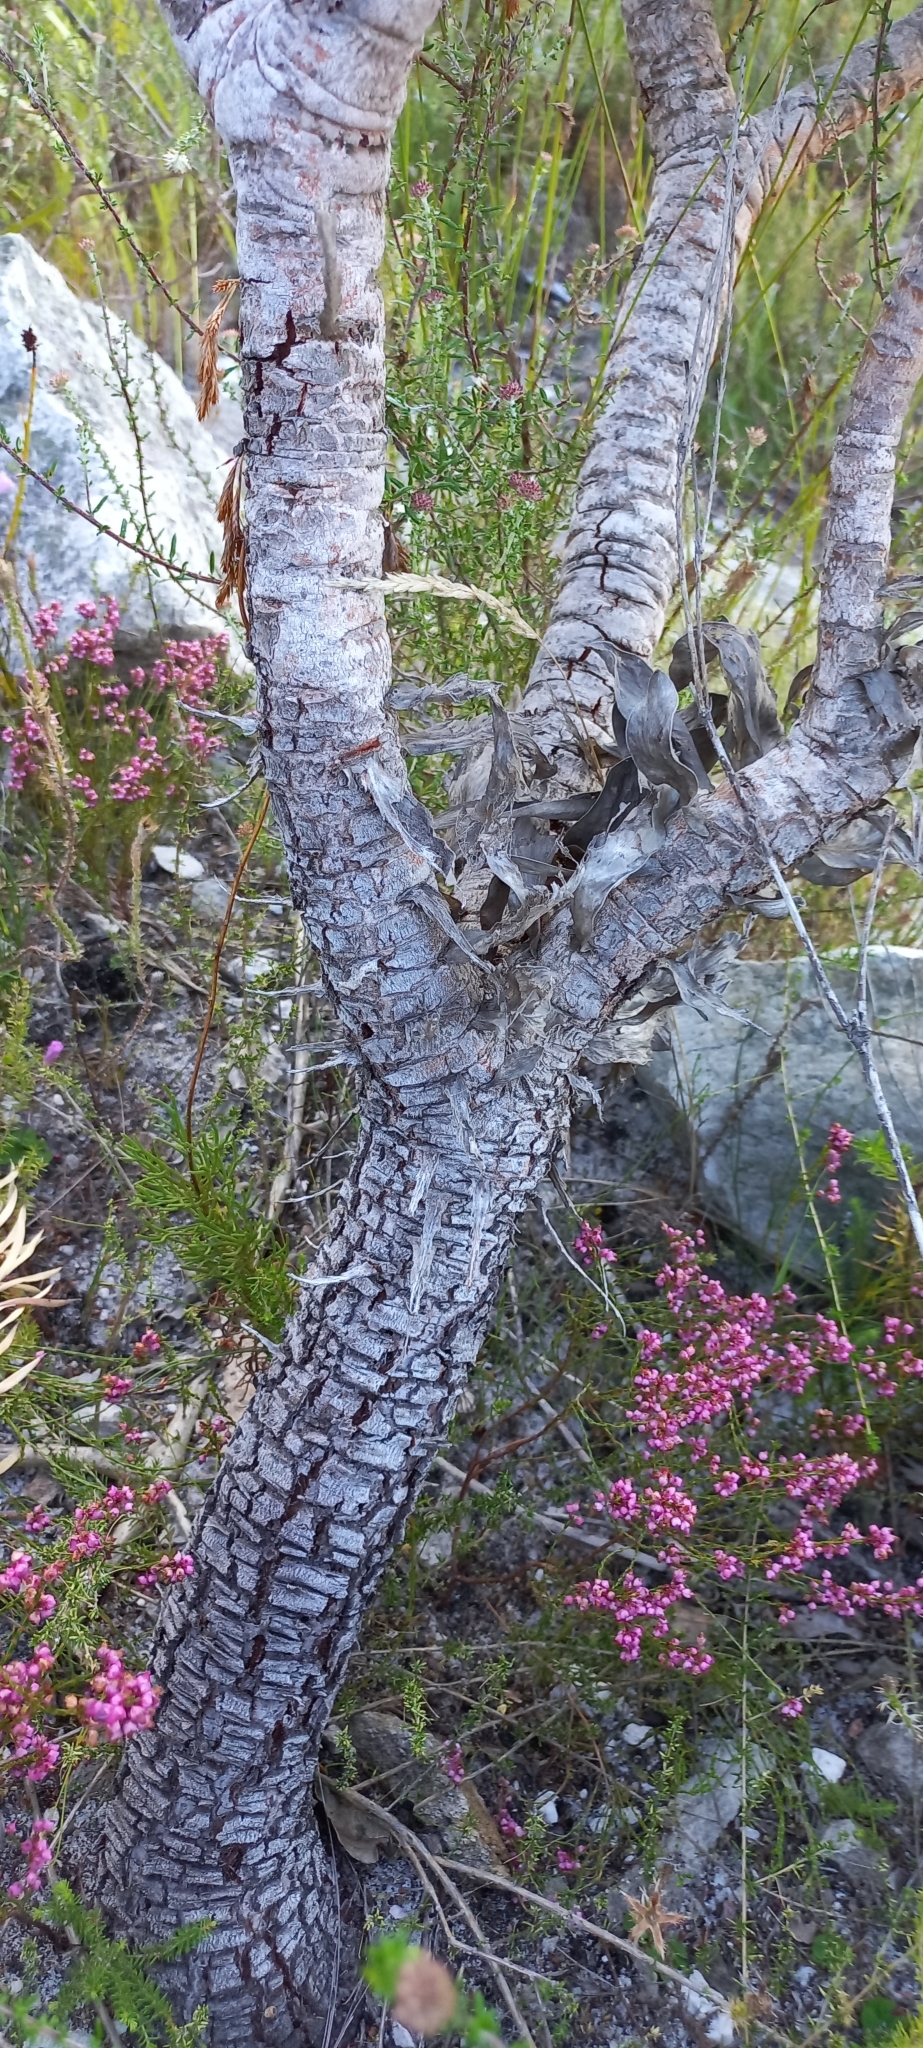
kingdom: Plantae
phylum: Tracheophyta
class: Magnoliopsida
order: Proteales
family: Proteaceae
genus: Leucospermum
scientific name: Leucospermum conocarpodendron
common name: Tree pincushion
